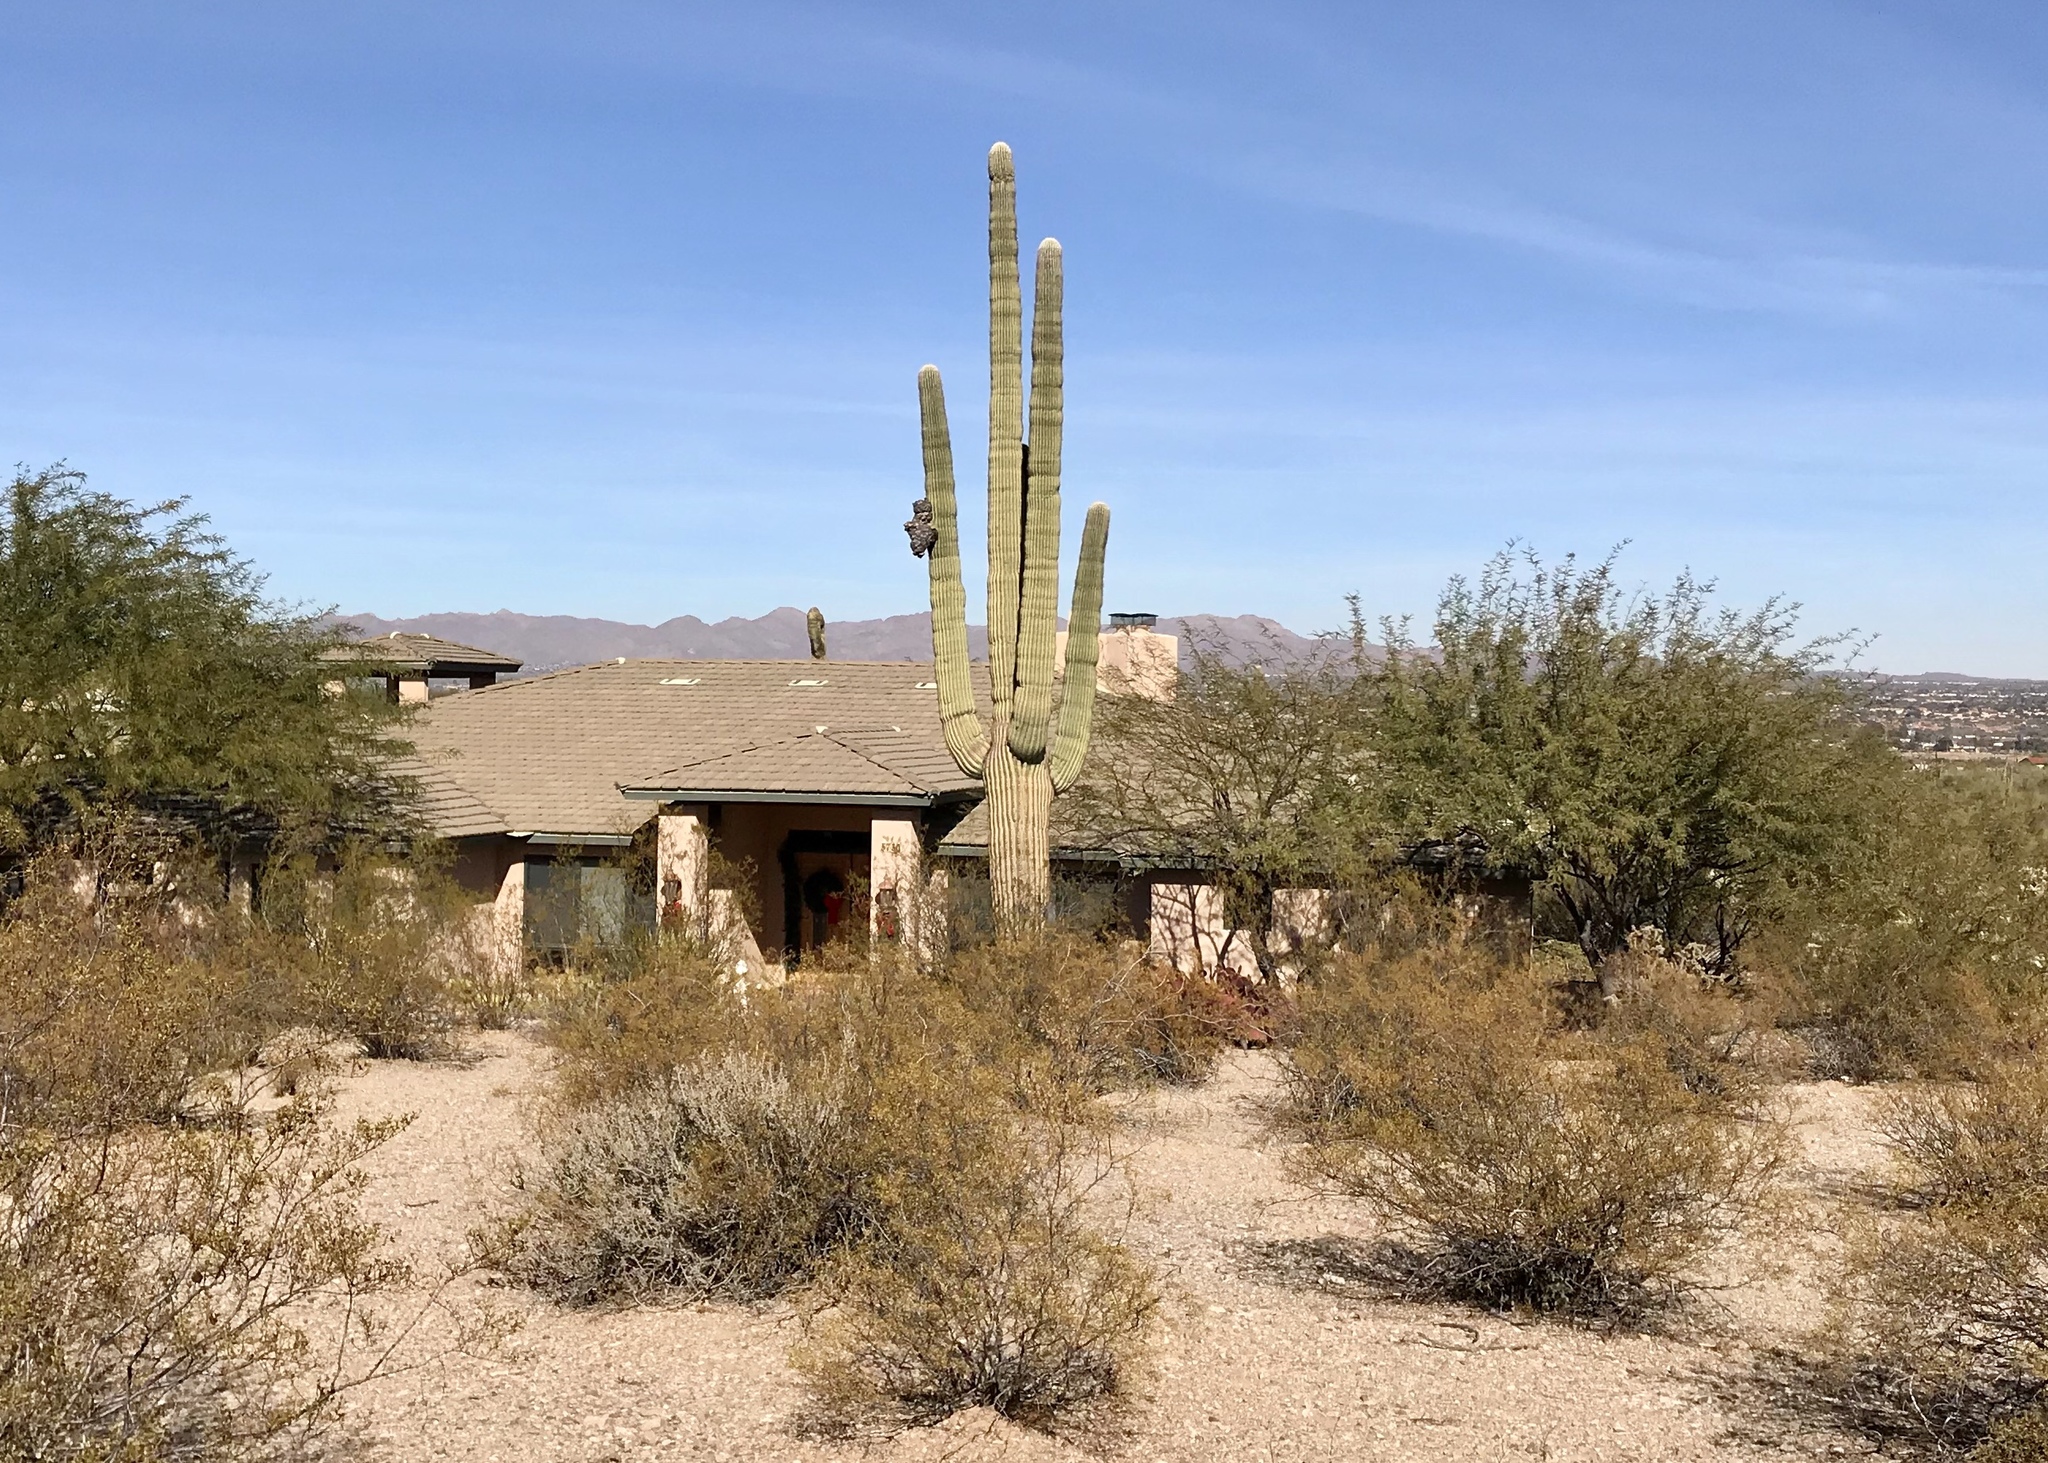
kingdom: Plantae
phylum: Tracheophyta
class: Magnoliopsida
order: Caryophyllales
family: Cactaceae
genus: Carnegiea
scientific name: Carnegiea gigantea
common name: Saguaro
